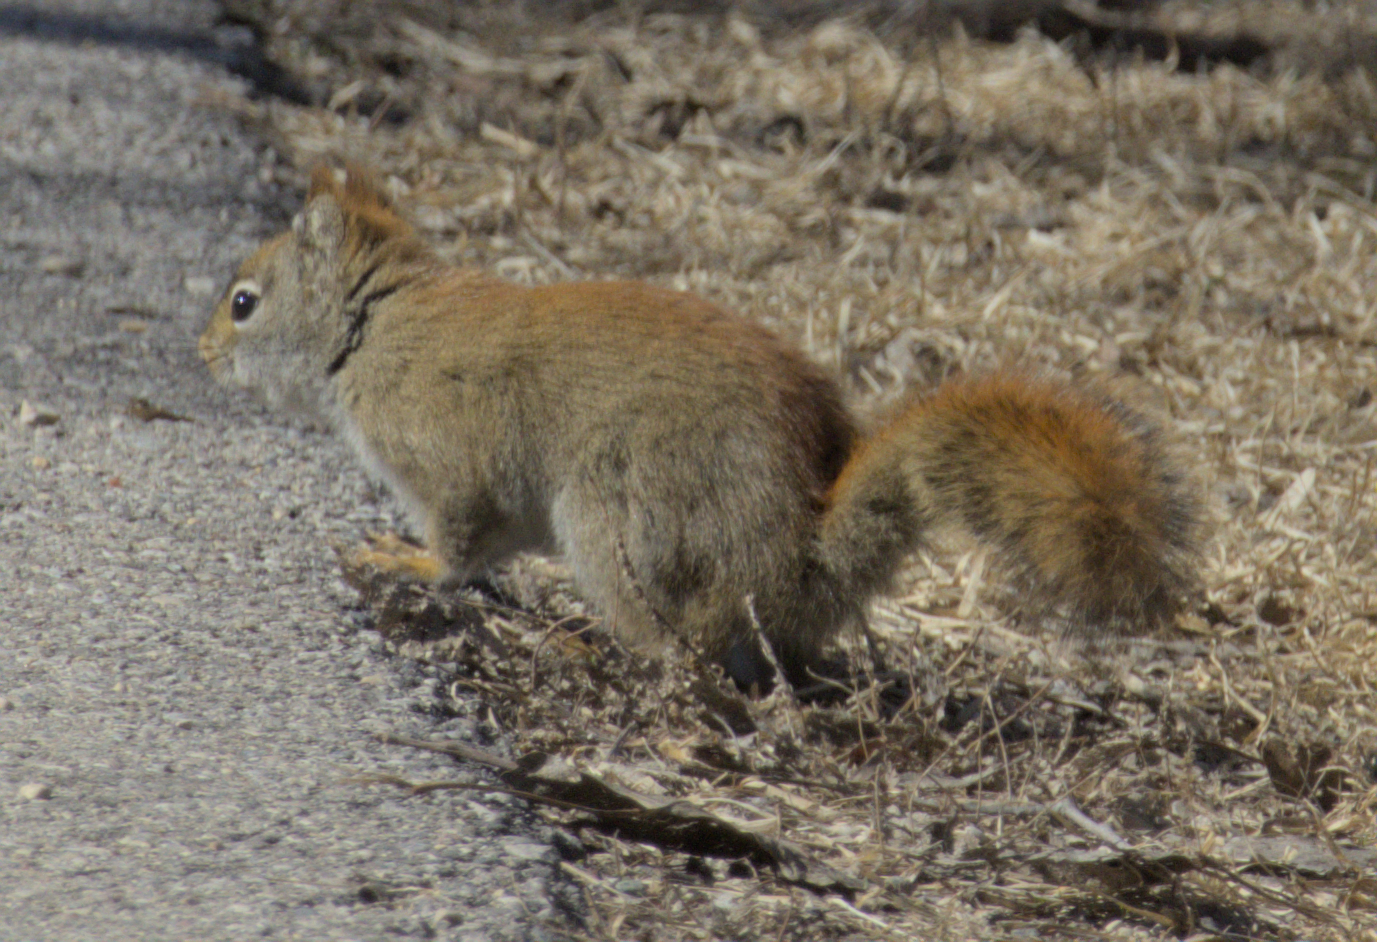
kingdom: Animalia
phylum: Chordata
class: Mammalia
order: Rodentia
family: Sciuridae
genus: Tamiasciurus
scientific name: Tamiasciurus hudsonicus
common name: Red squirrel
